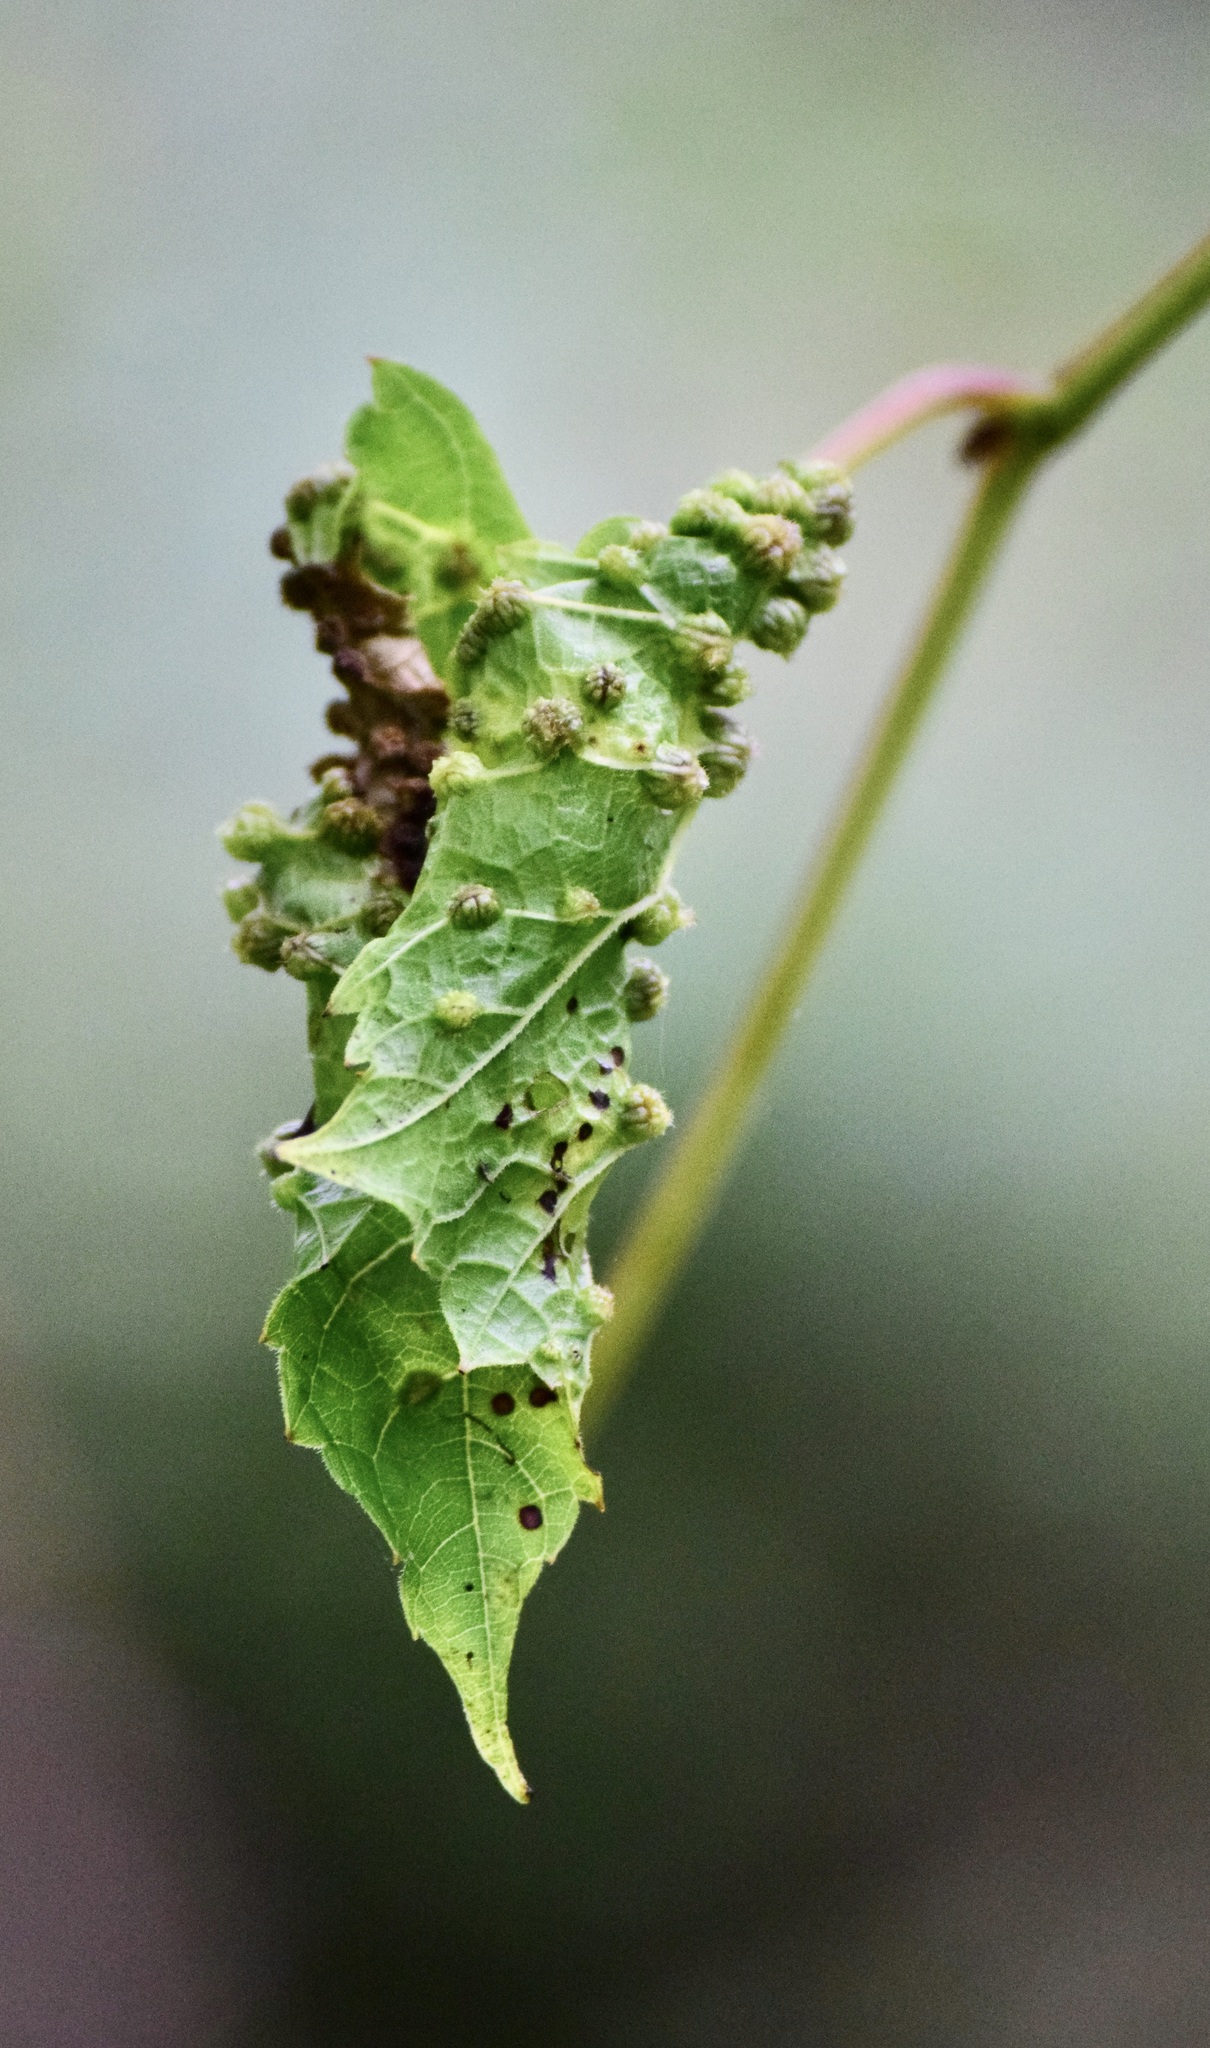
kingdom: Animalia
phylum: Arthropoda
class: Insecta
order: Hemiptera
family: Phylloxeridae
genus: Daktulosphaira
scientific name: Daktulosphaira vitifoliae
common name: Grape phylloxera
